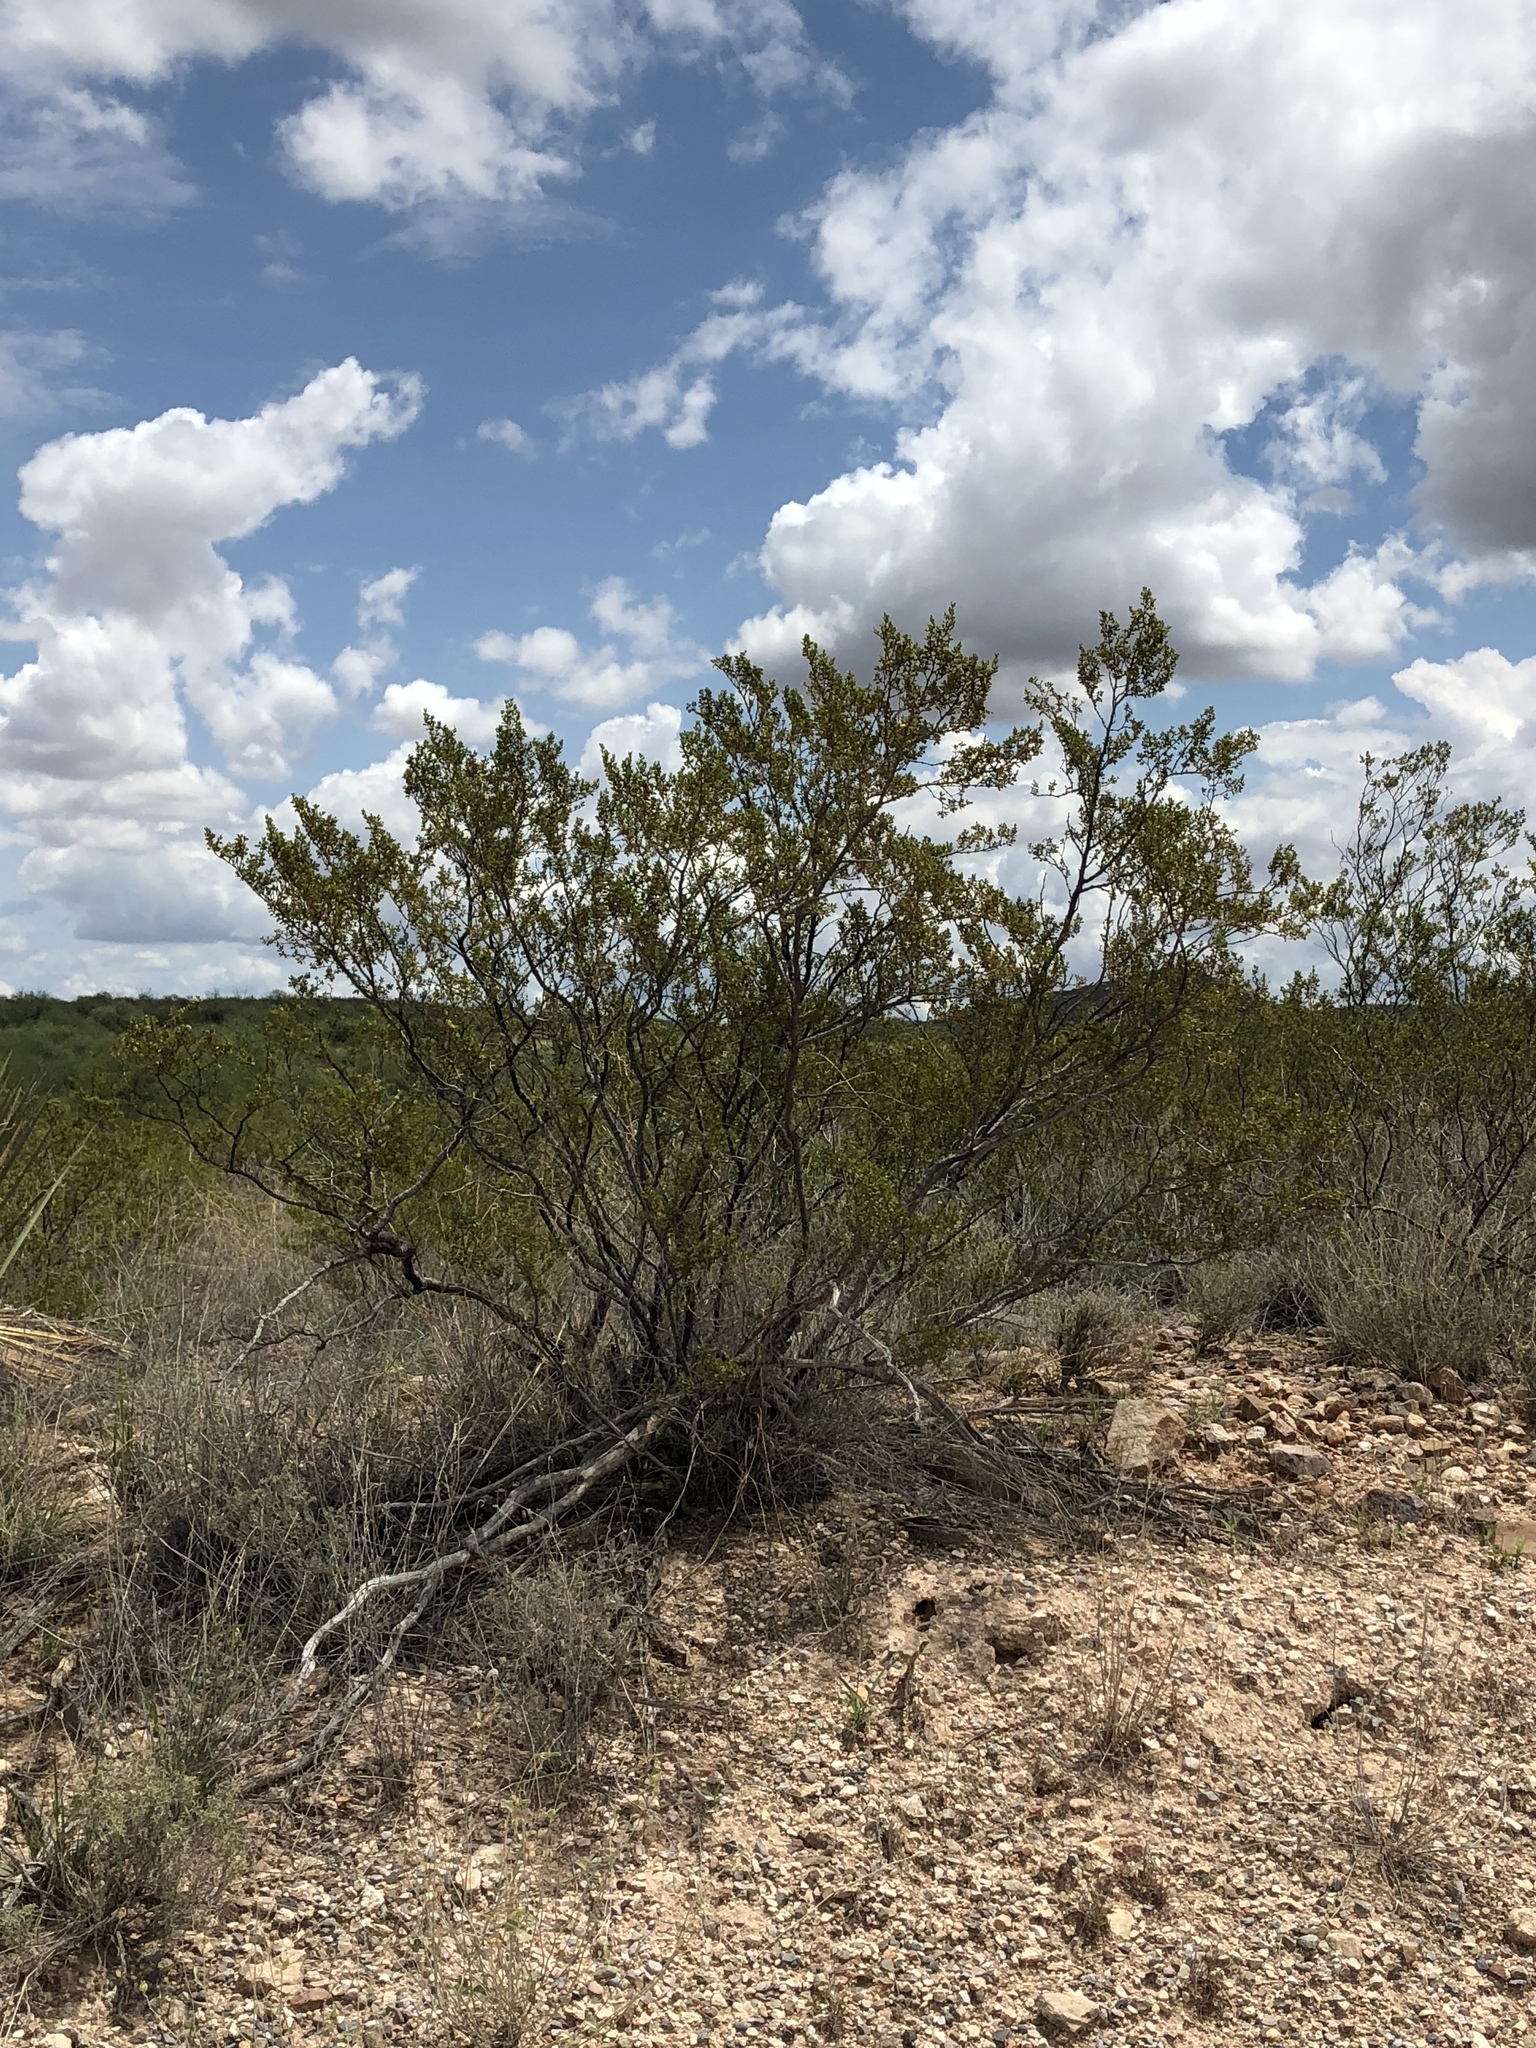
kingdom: Plantae
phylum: Tracheophyta
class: Magnoliopsida
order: Zygophyllales
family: Zygophyllaceae
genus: Larrea
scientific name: Larrea tridentata
